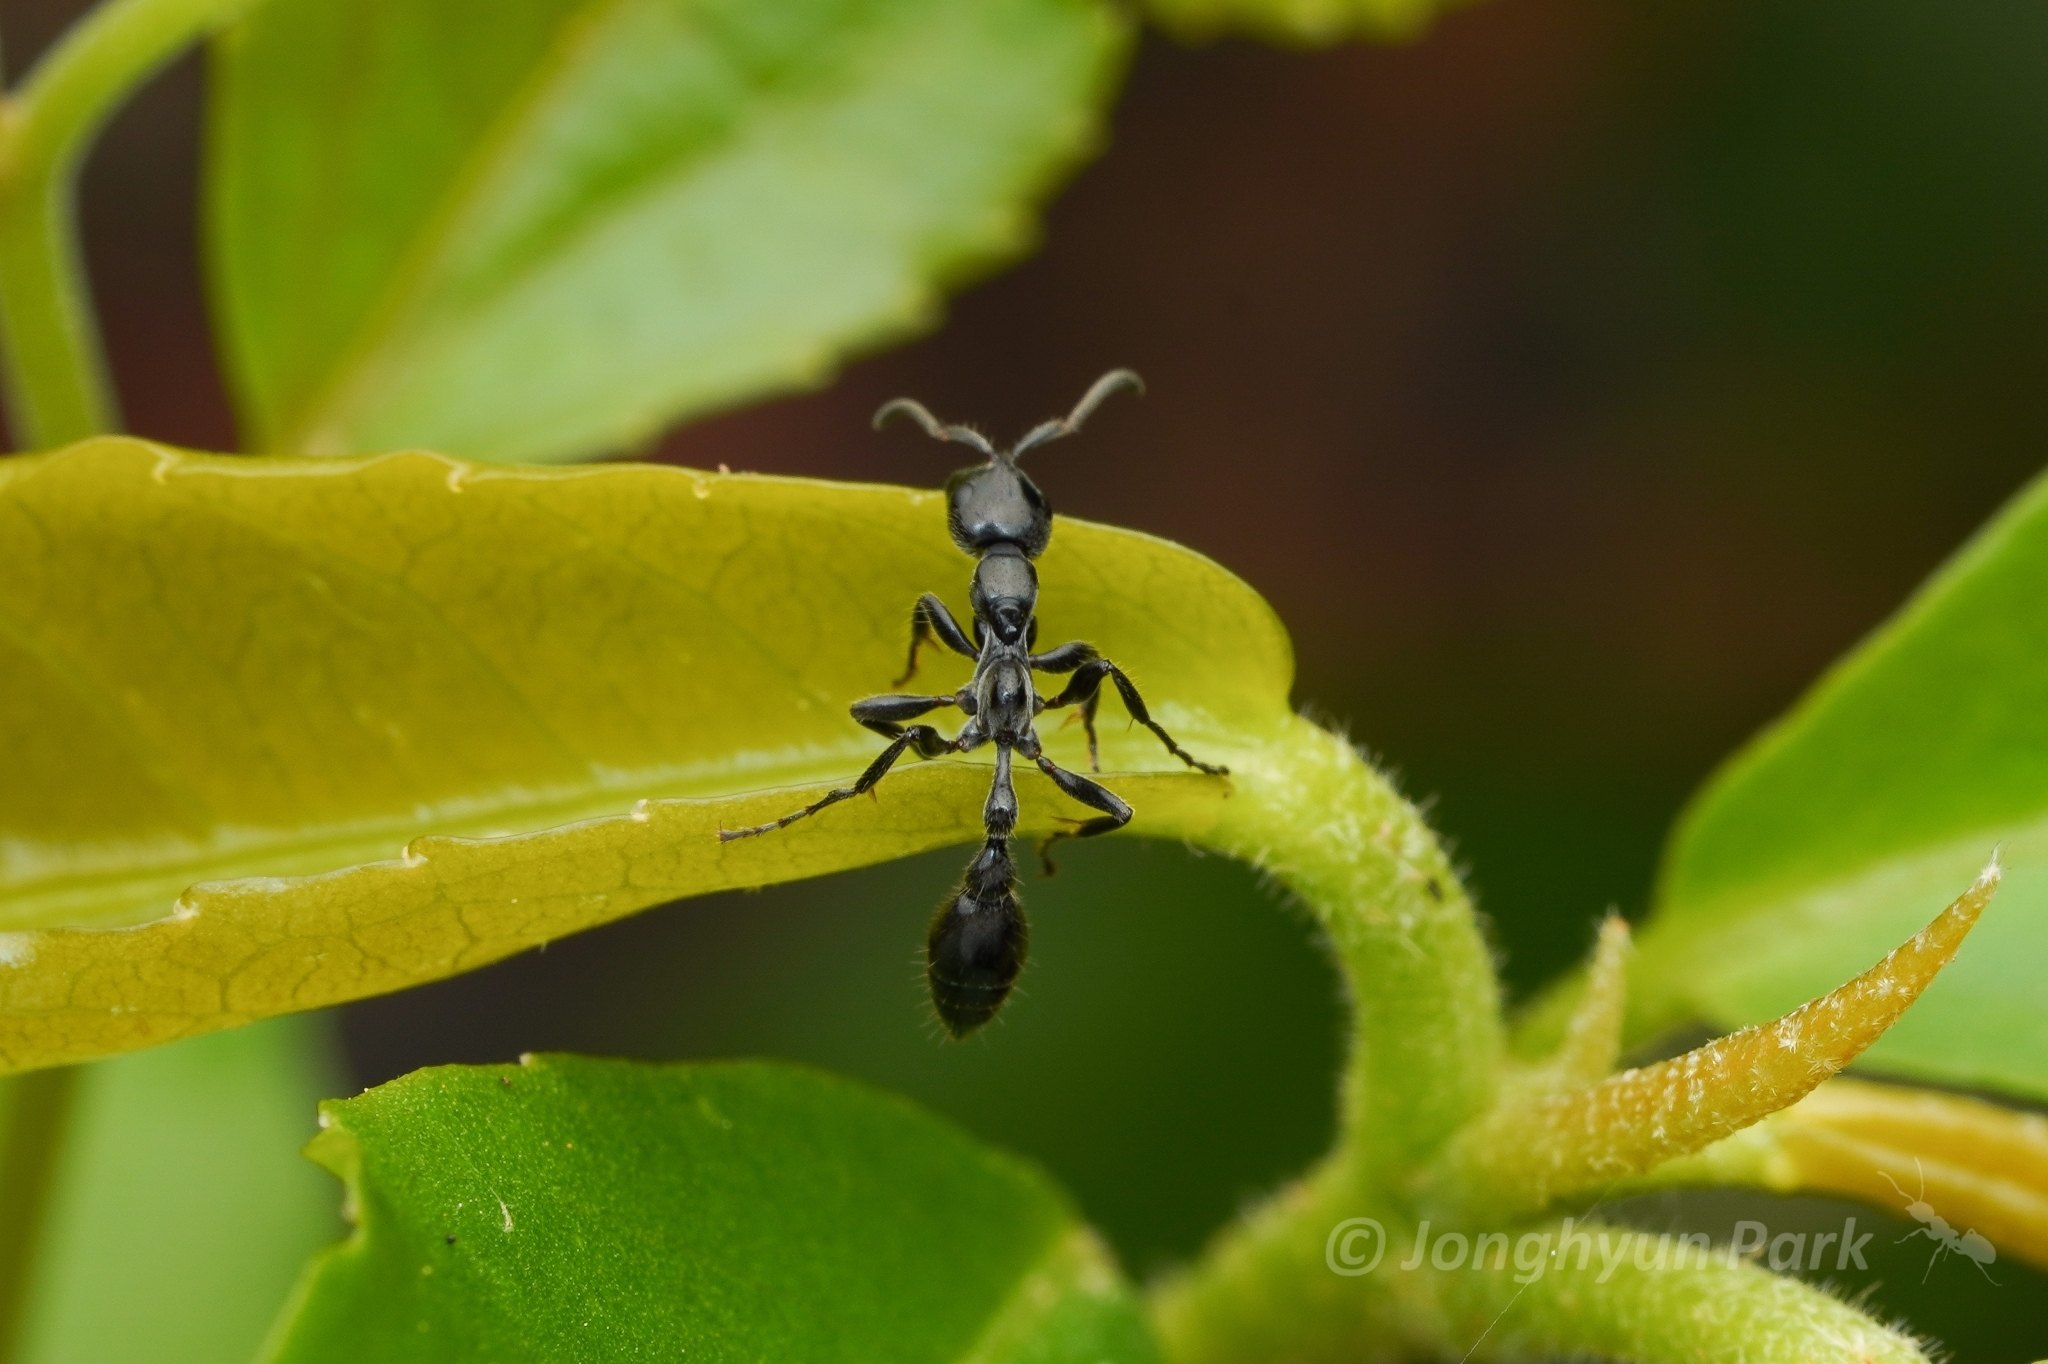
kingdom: Animalia
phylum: Arthropoda
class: Insecta
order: Hymenoptera
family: Formicidae
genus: Tetraponera
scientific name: Tetraponera attenuata
